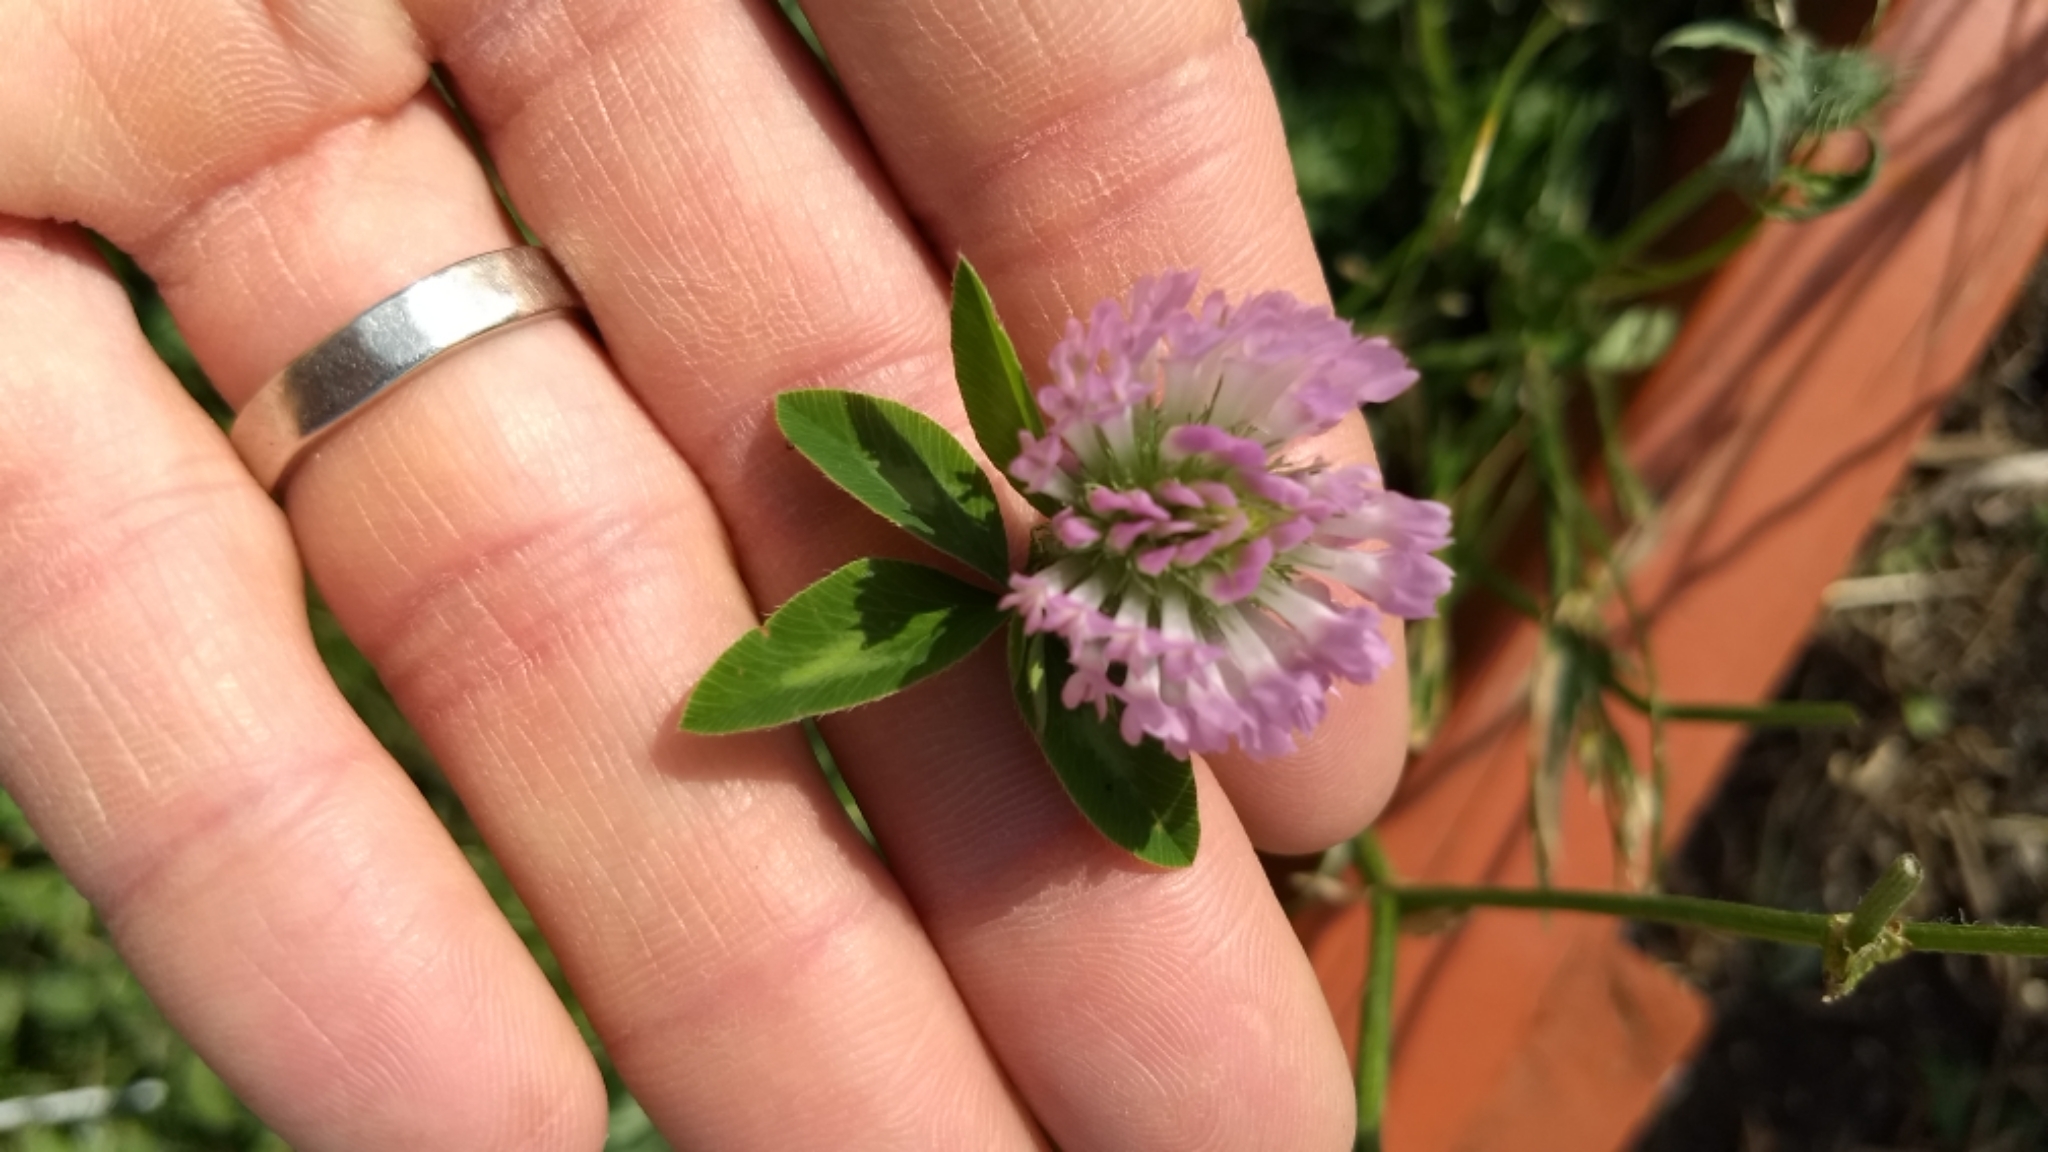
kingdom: Plantae
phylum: Tracheophyta
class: Magnoliopsida
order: Fabales
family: Fabaceae
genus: Trifolium
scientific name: Trifolium pratense
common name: Red clover
